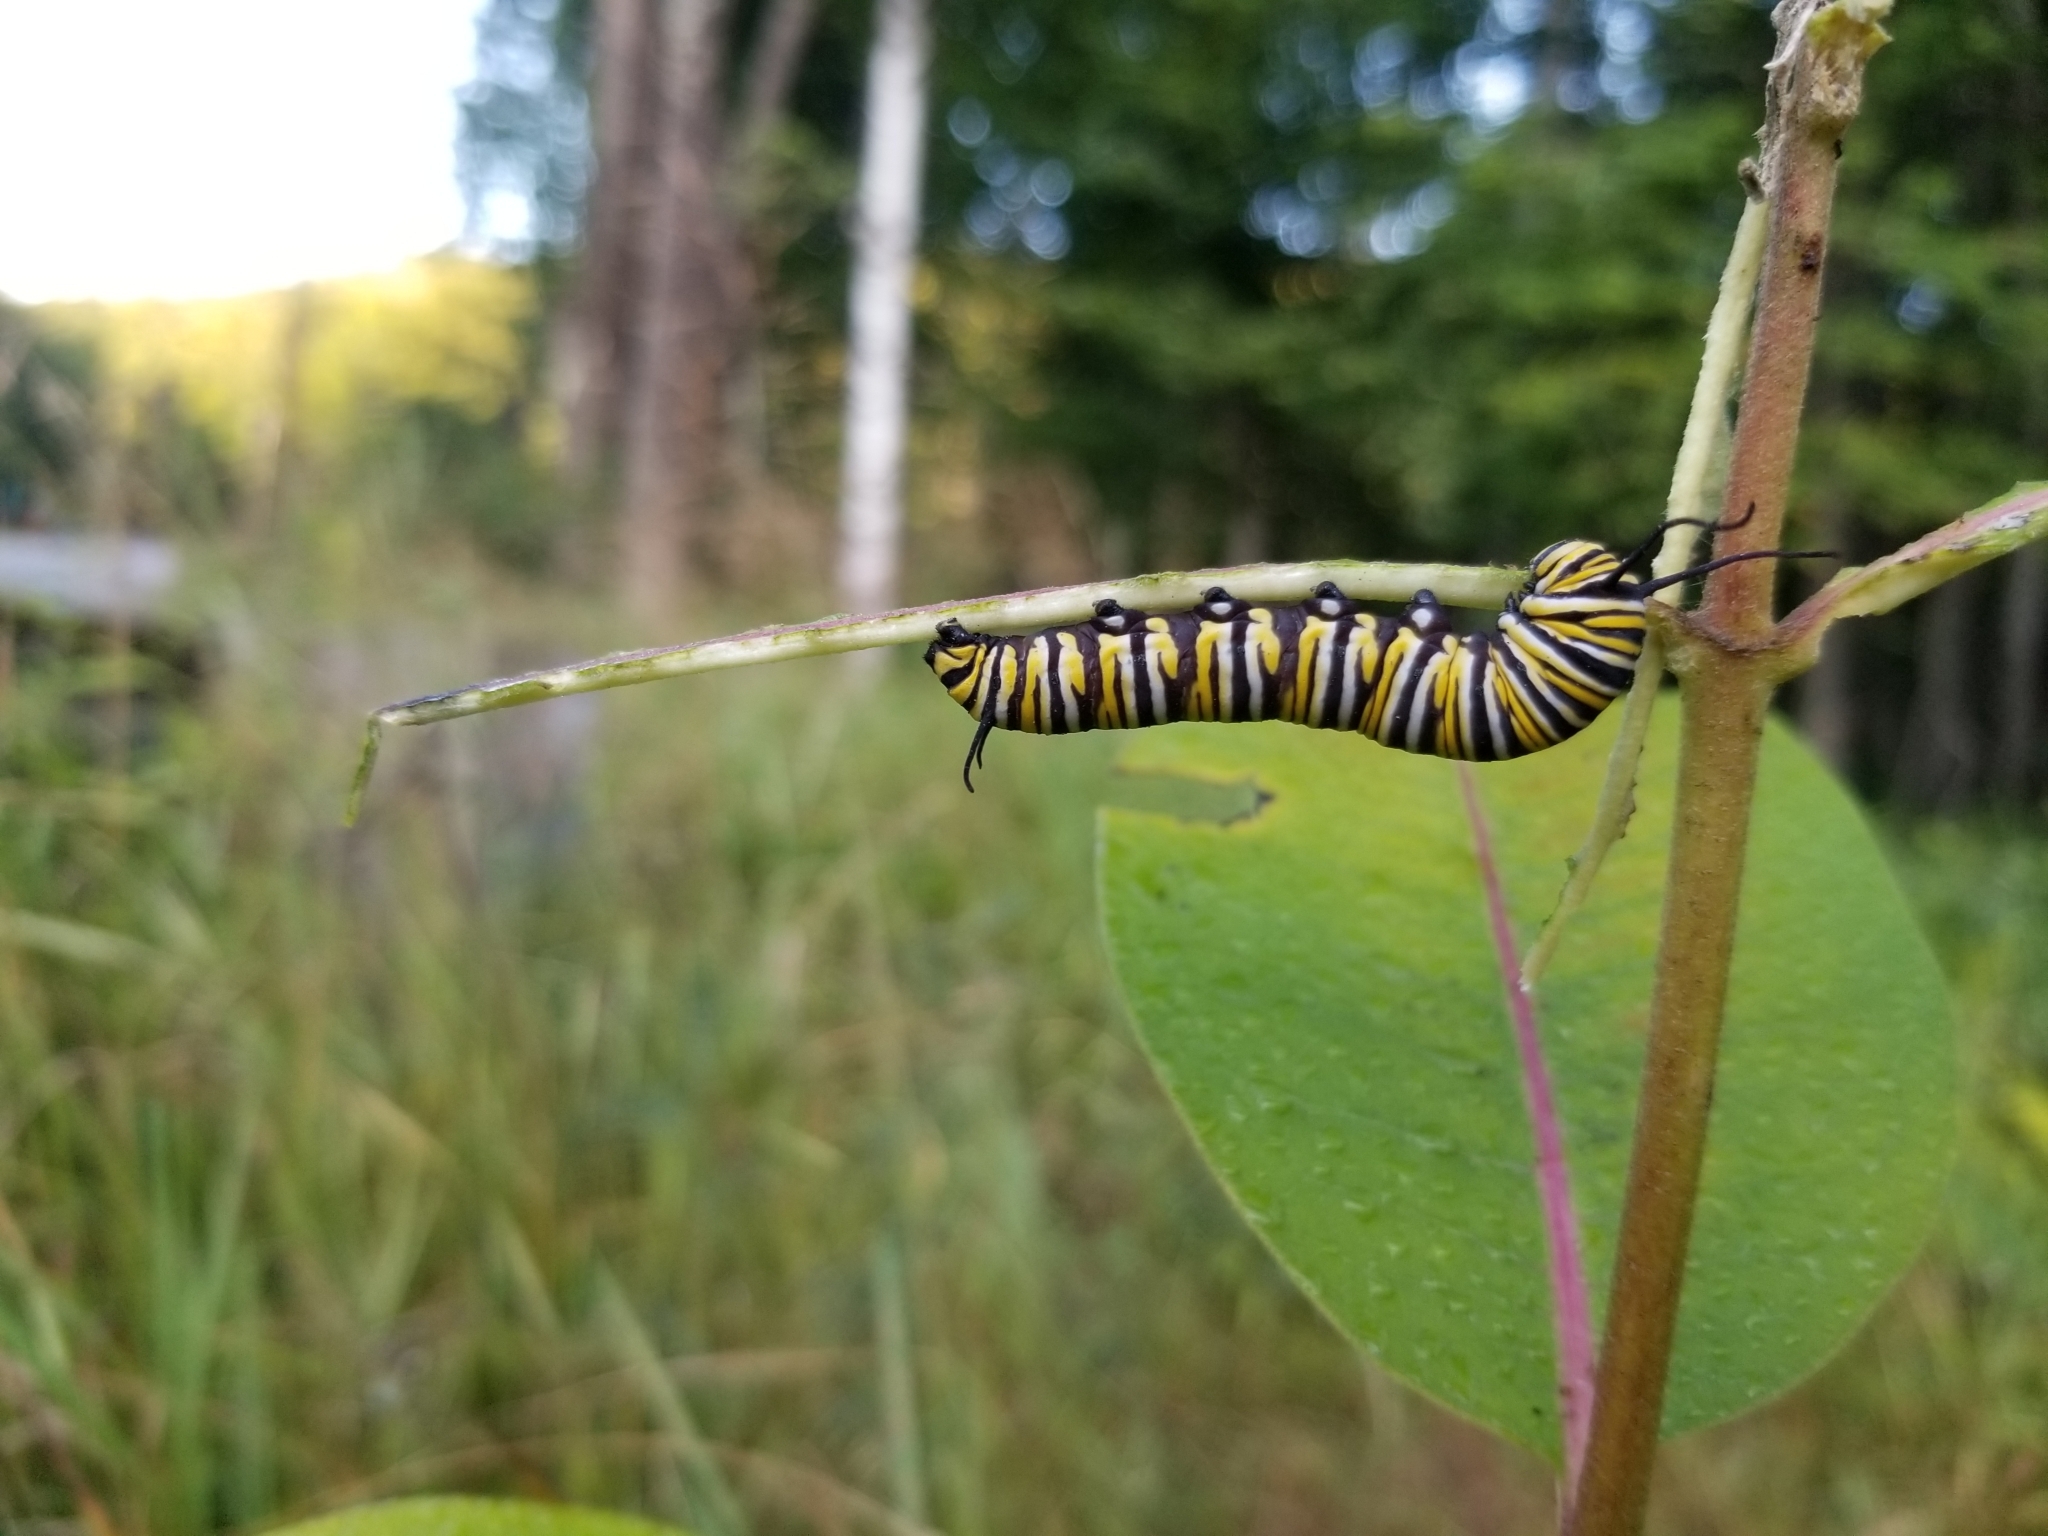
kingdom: Animalia
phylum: Arthropoda
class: Insecta
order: Lepidoptera
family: Nymphalidae
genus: Danaus
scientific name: Danaus plexippus
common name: Monarch
